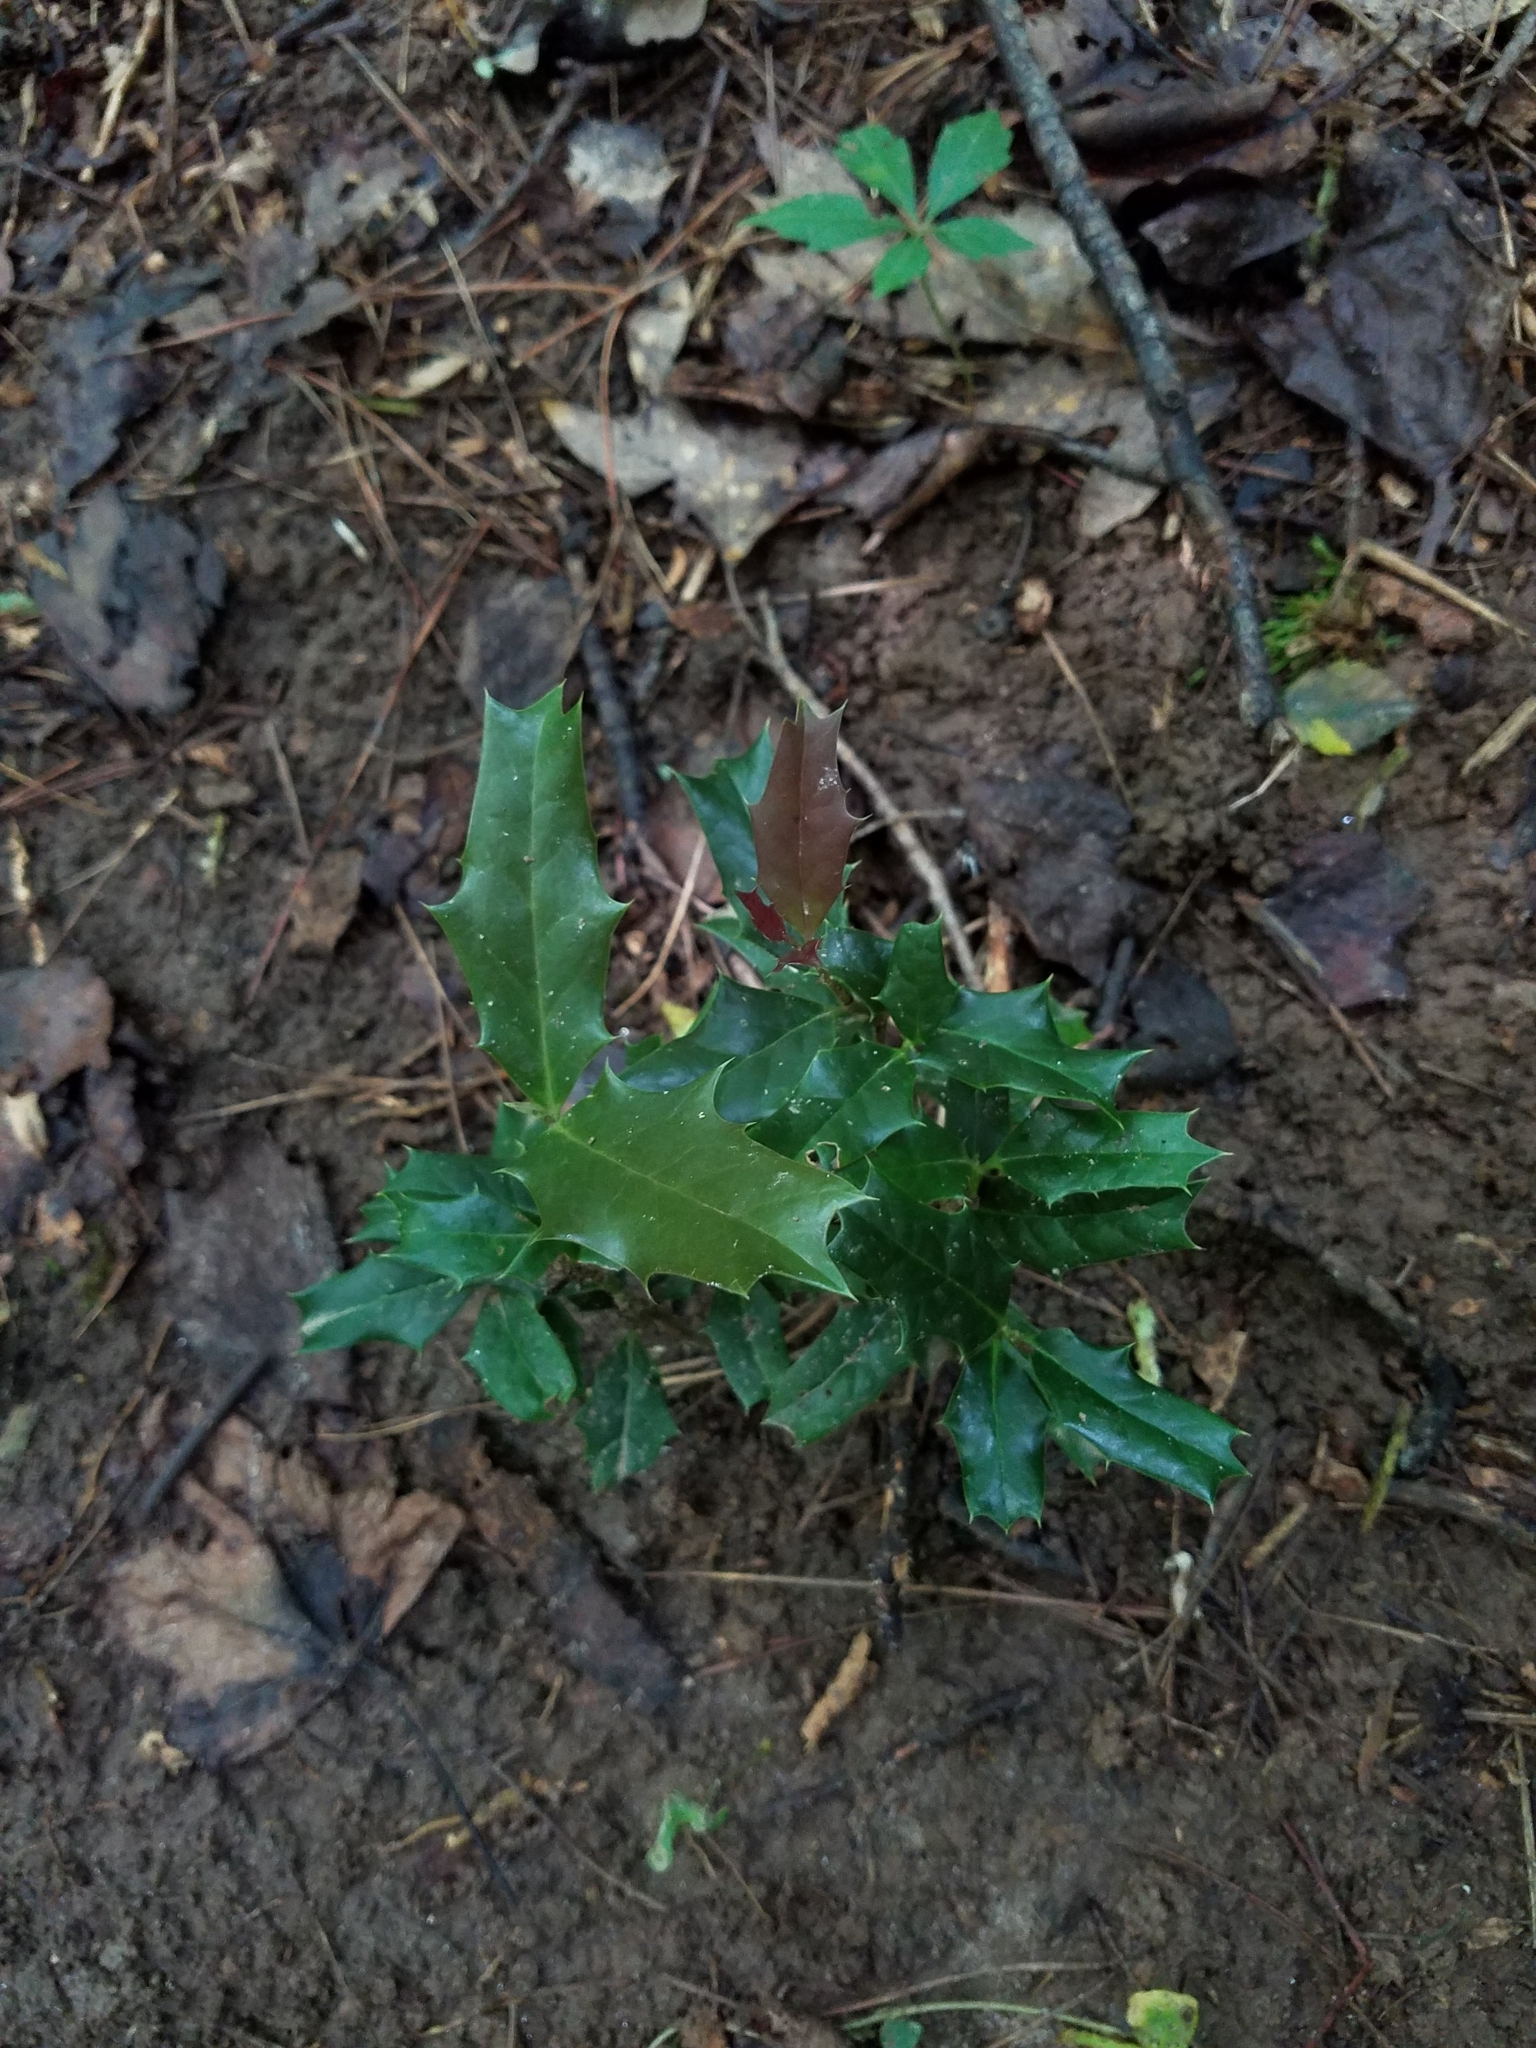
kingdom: Plantae
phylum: Tracheophyta
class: Magnoliopsida
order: Aquifoliales
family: Aquifoliaceae
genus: Ilex
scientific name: Ilex cornuta
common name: Chinese holly
